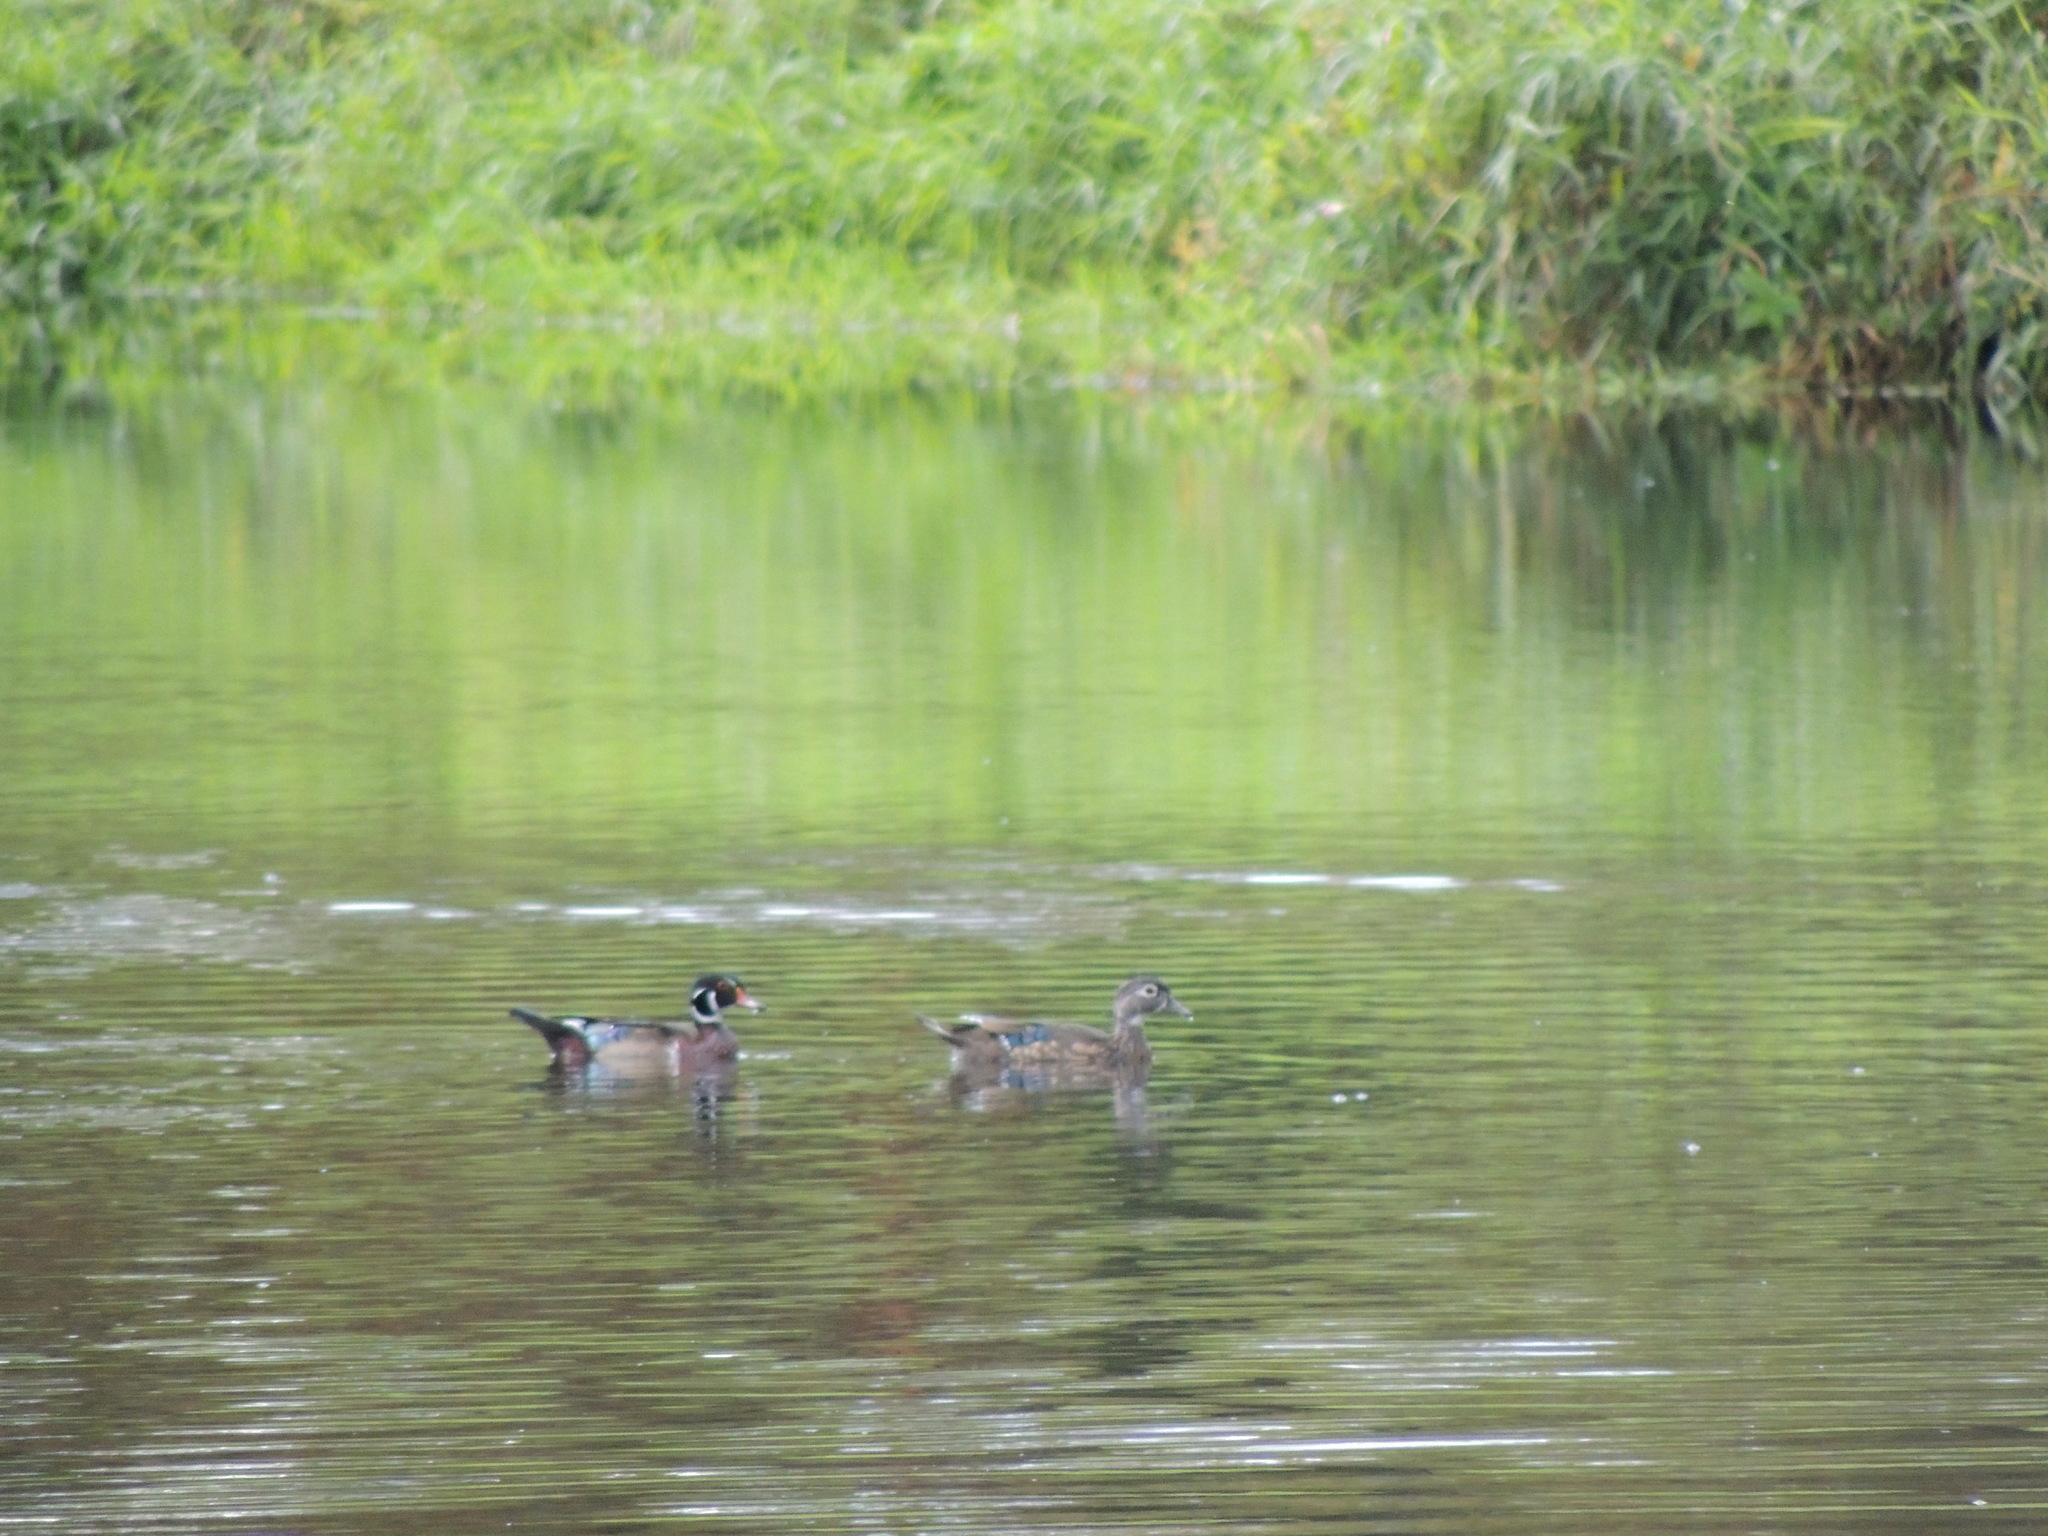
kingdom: Animalia
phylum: Chordata
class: Aves
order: Anseriformes
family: Anatidae
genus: Aix
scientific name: Aix sponsa
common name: Wood duck
